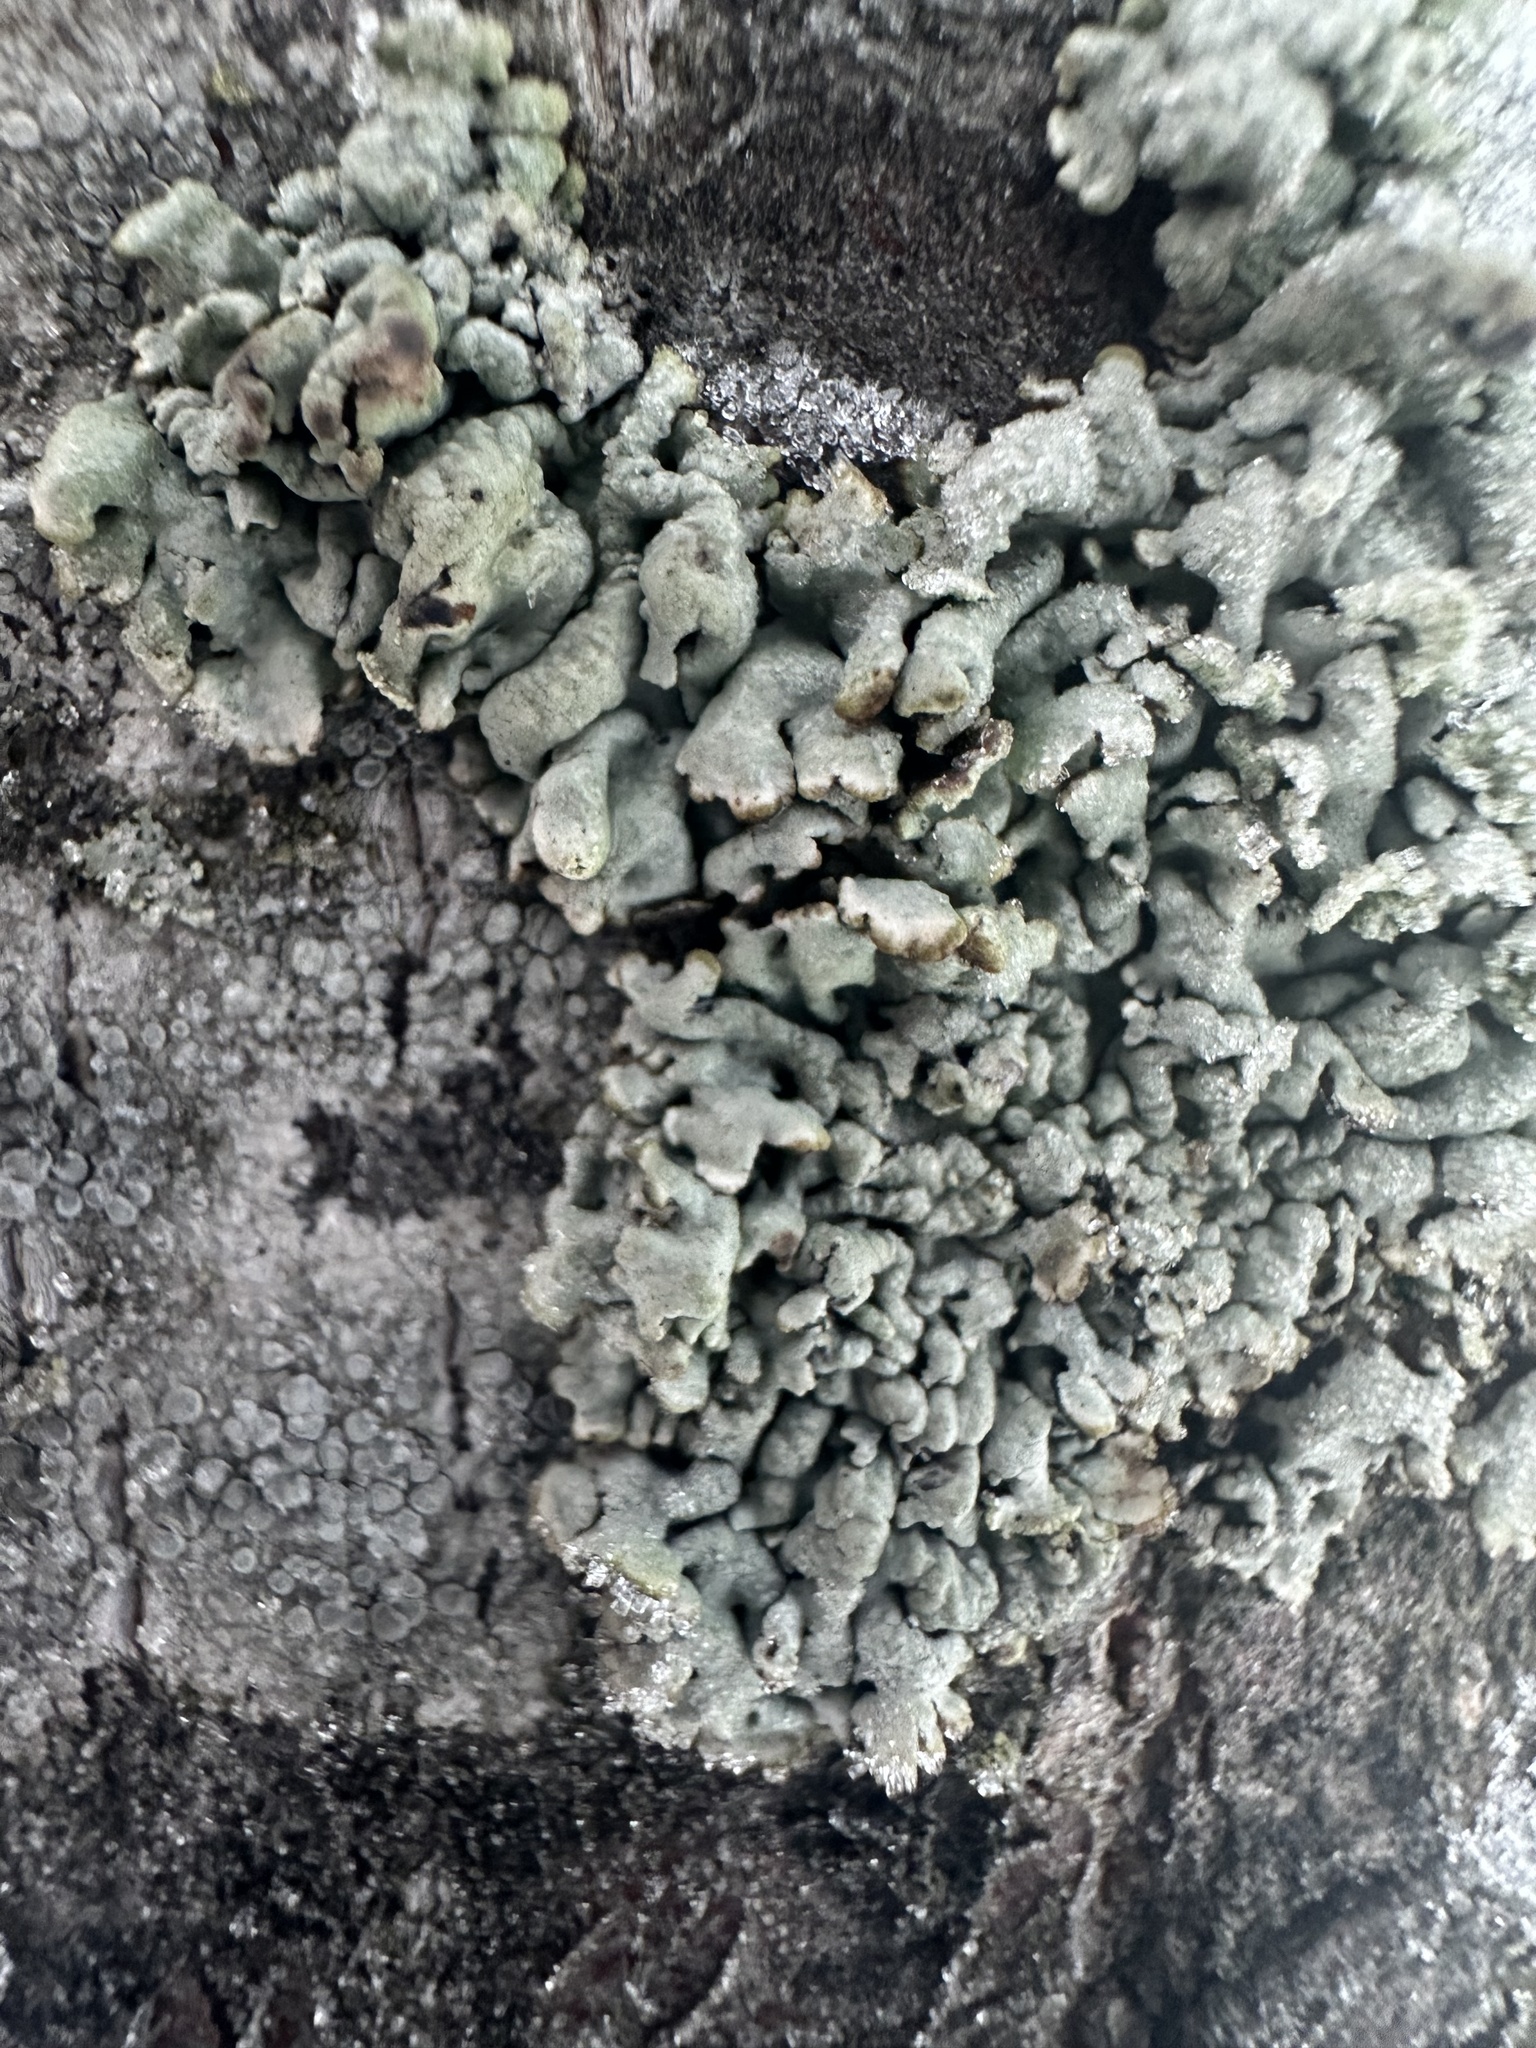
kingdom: Fungi
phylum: Ascomycota
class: Lecanoromycetes
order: Lecanorales
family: Parmeliaceae
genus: Hypogymnia
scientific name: Hypogymnia physodes
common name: Dark crottle
